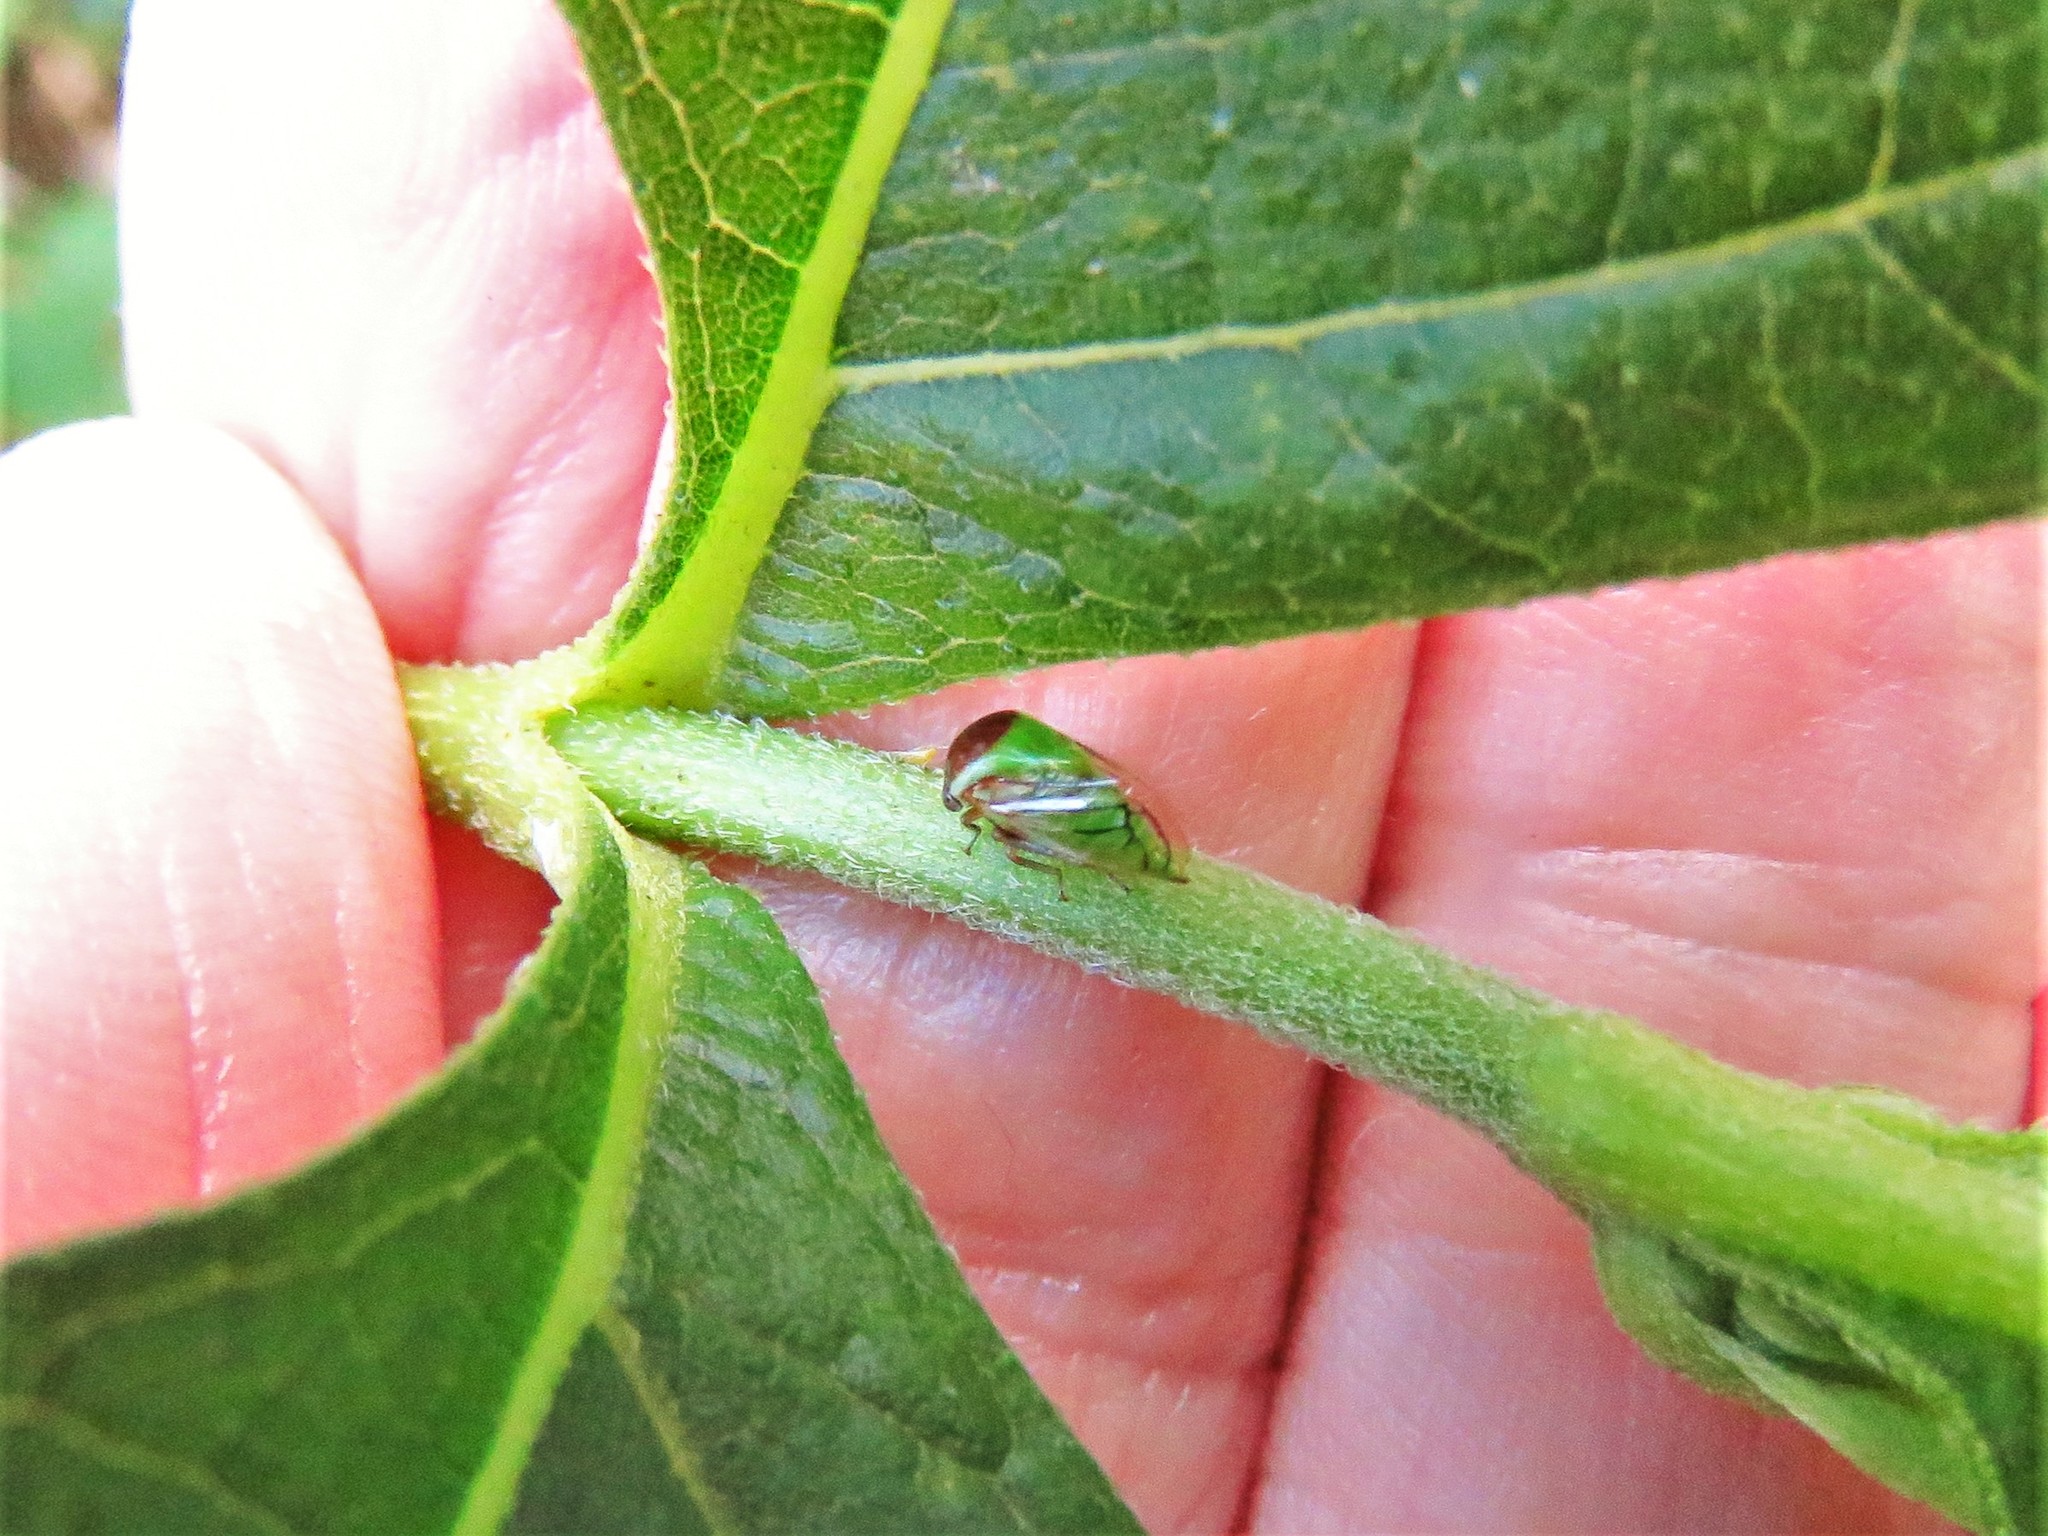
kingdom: Animalia
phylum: Arthropoda
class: Insecta
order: Hemiptera
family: Membracidae
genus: Acutalis
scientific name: Acutalis tartarea
